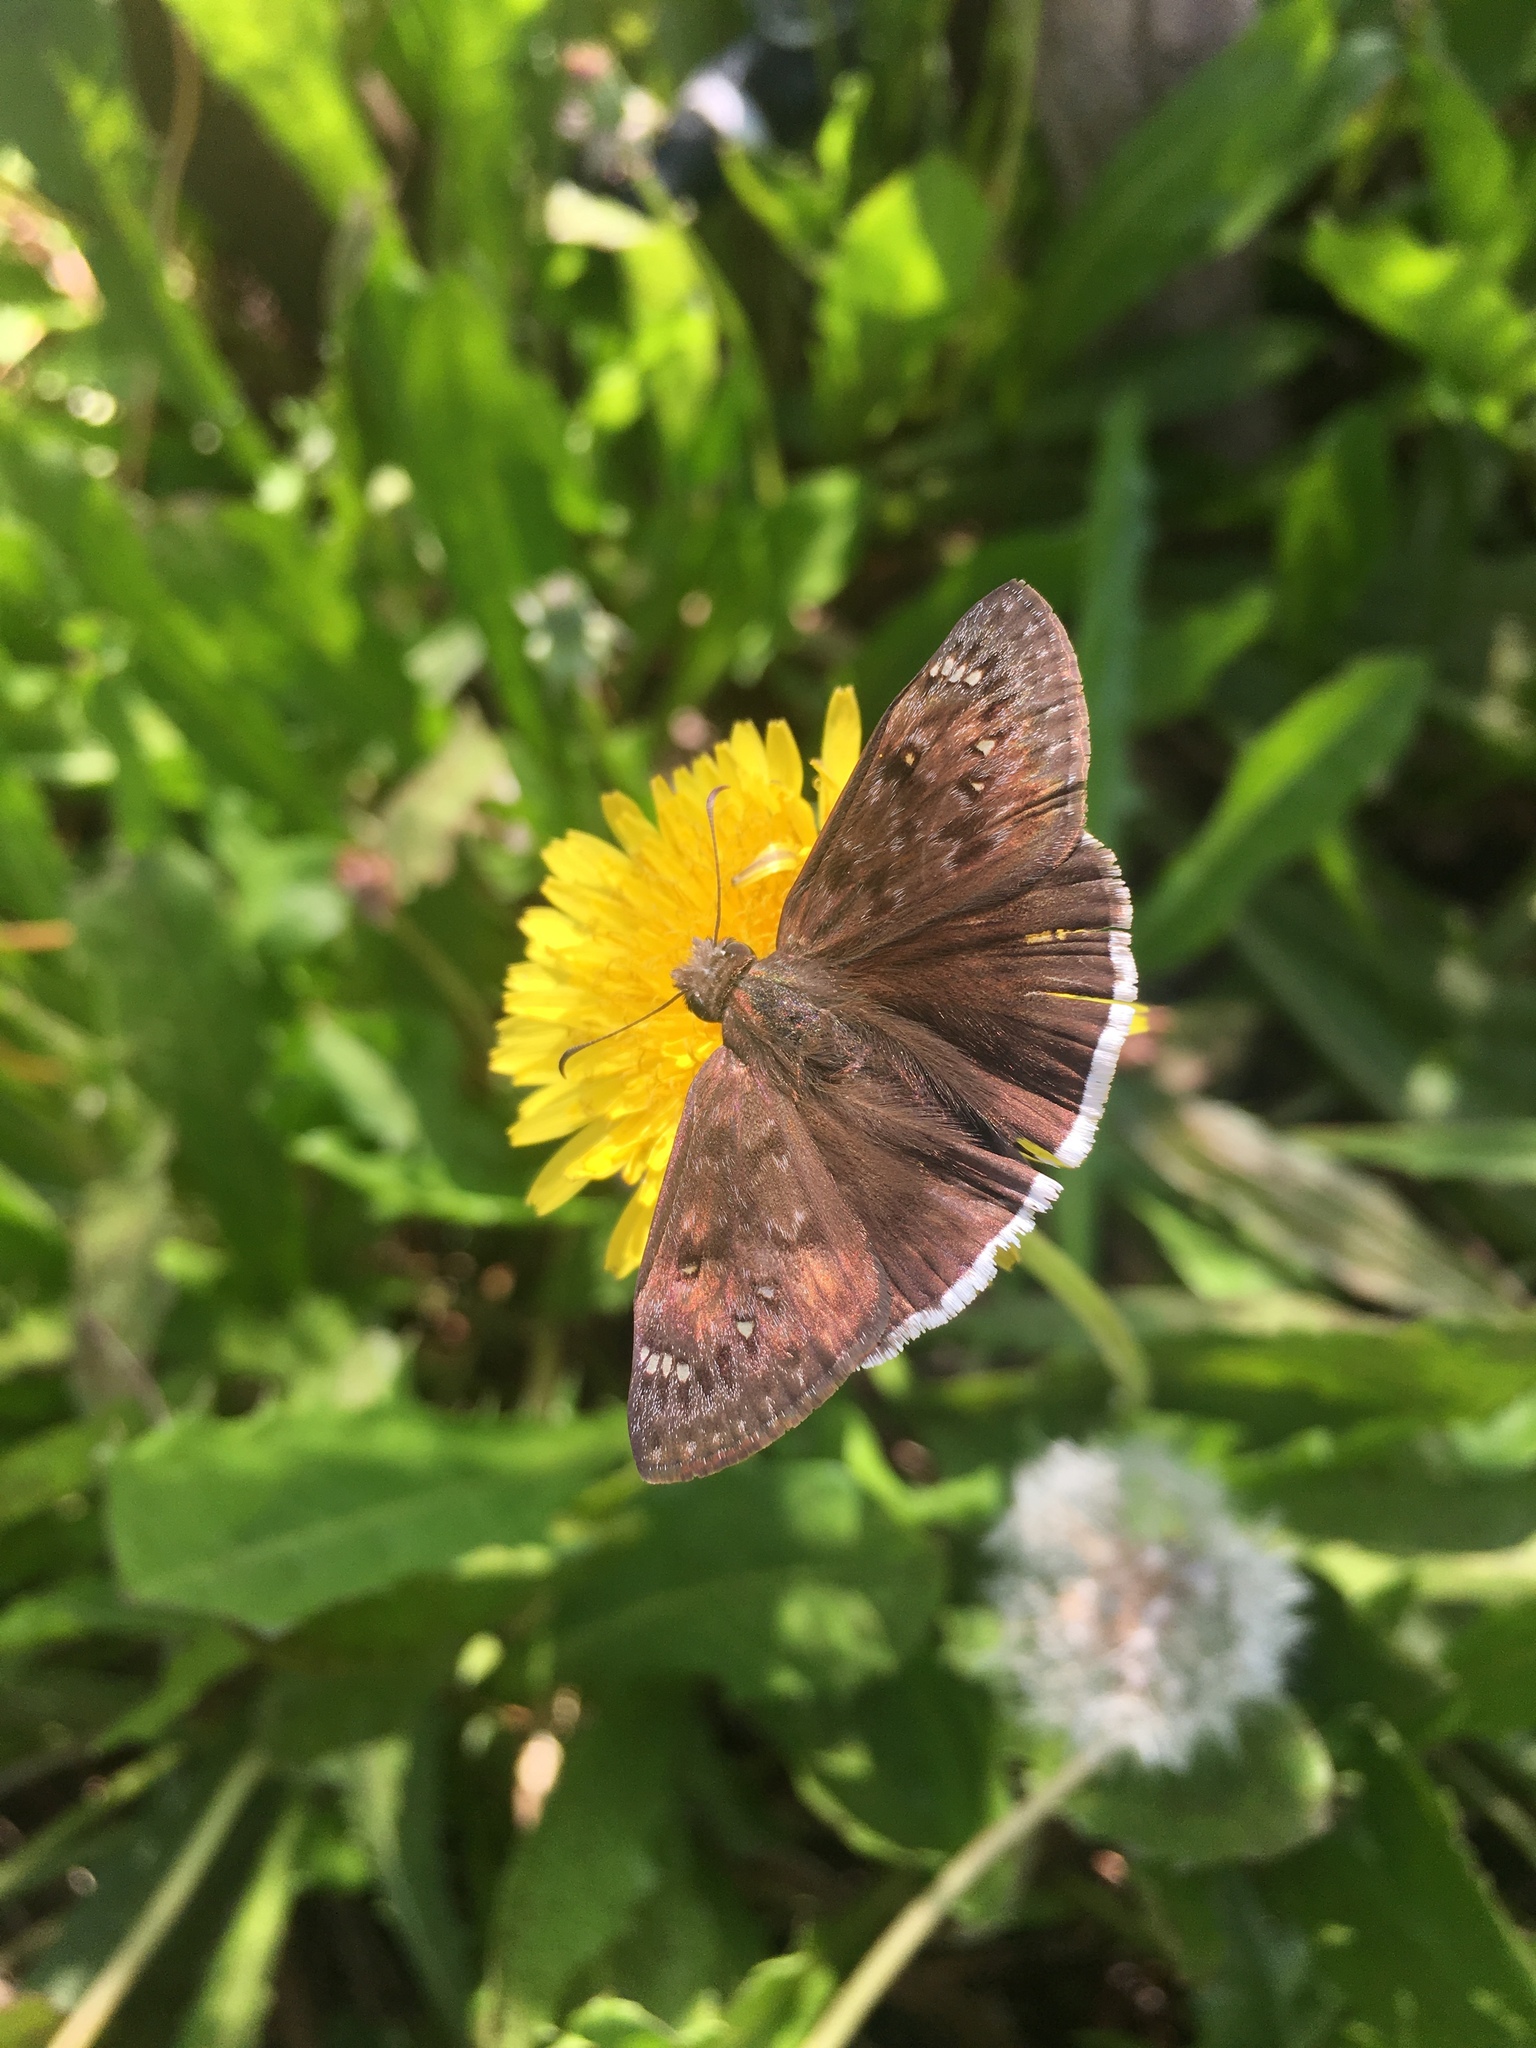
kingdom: Animalia
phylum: Arthropoda
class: Insecta
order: Lepidoptera
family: Hesperiidae
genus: Erynnis
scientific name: Erynnis tristis
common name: Mournful duskywing
